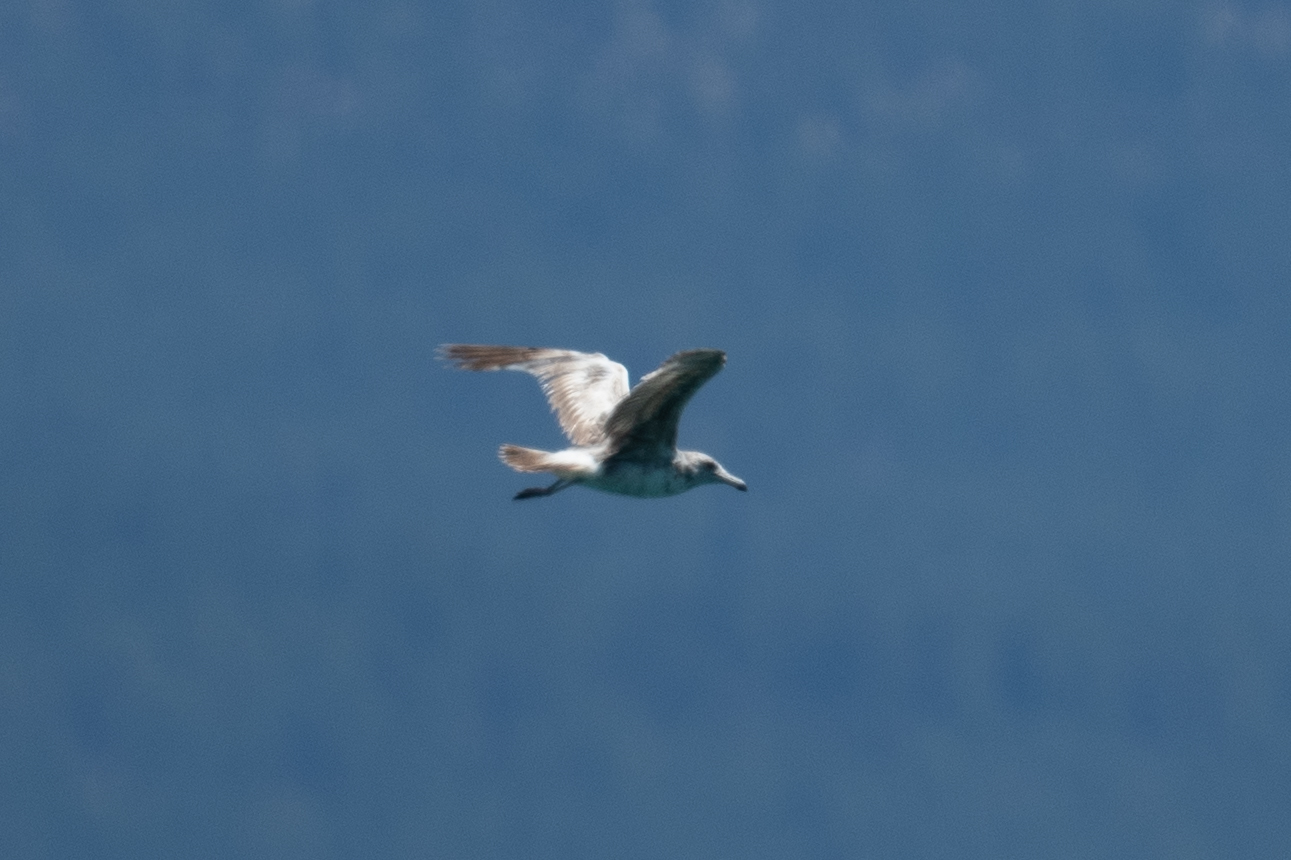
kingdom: Animalia
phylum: Chordata
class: Aves
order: Charadriiformes
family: Laridae
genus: Larus
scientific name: Larus californicus
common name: California gull
